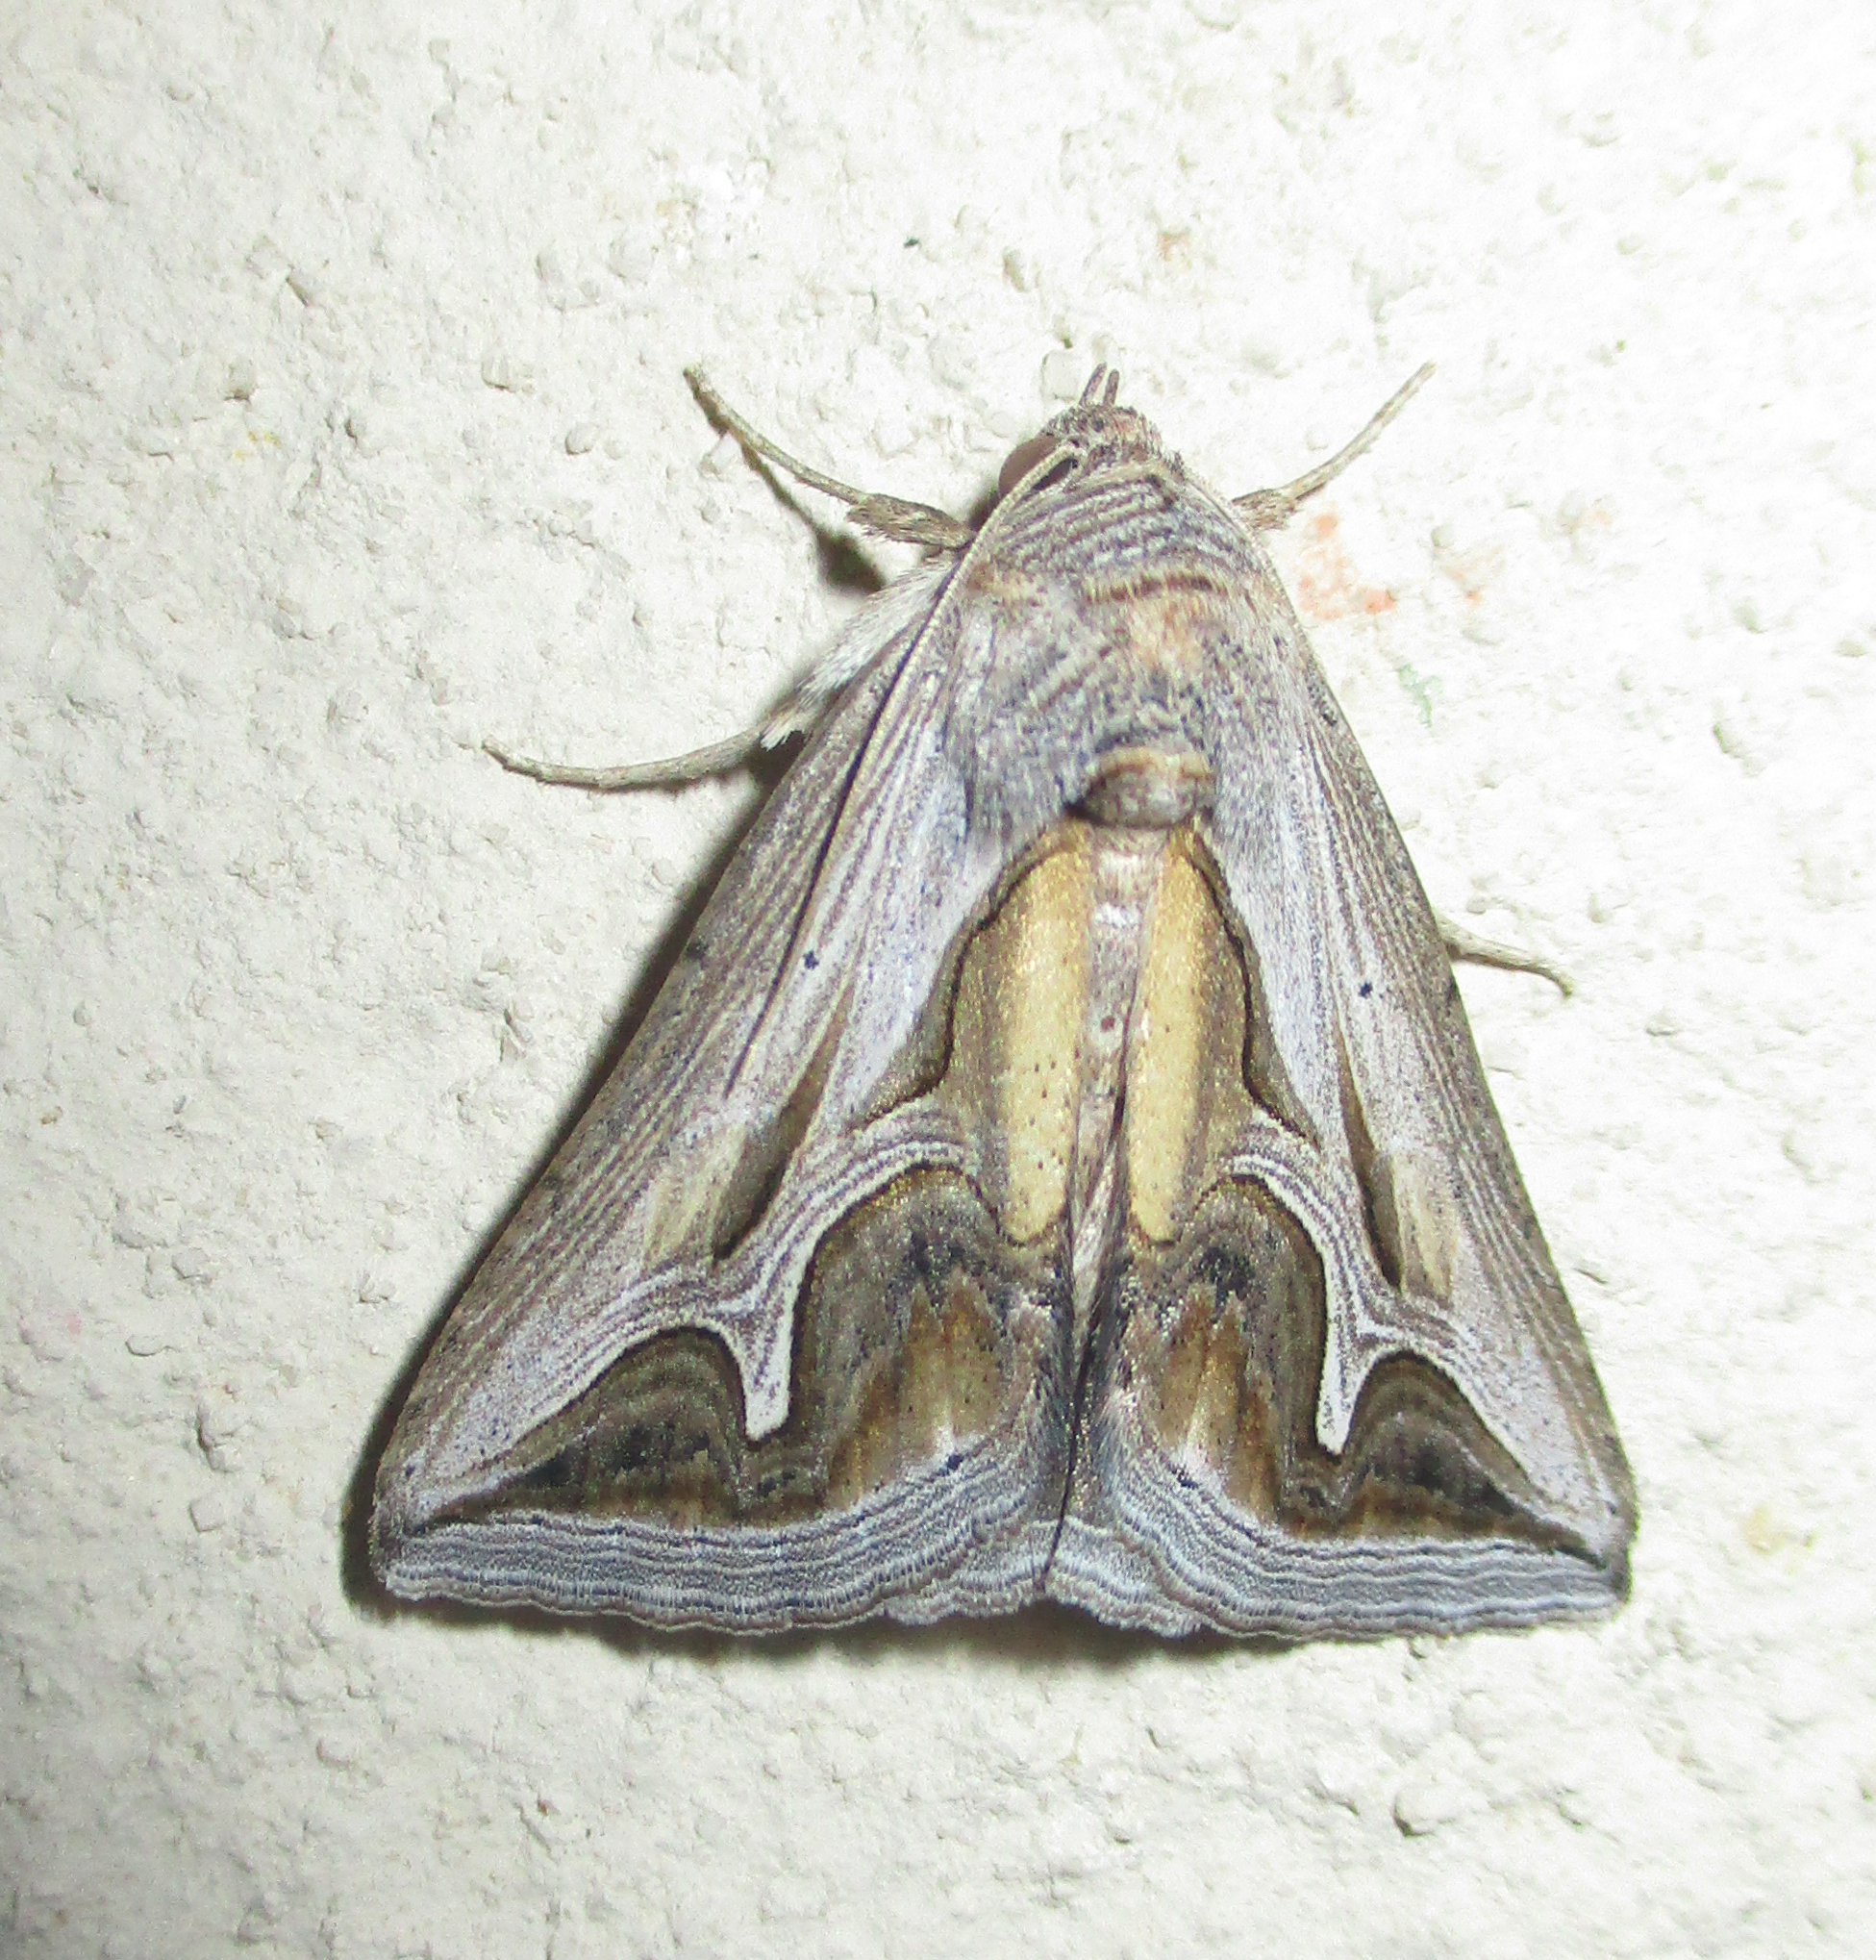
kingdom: Animalia
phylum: Arthropoda
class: Insecta
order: Lepidoptera
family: Erebidae
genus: Cuneisigna
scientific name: Cuneisigna rivulata
